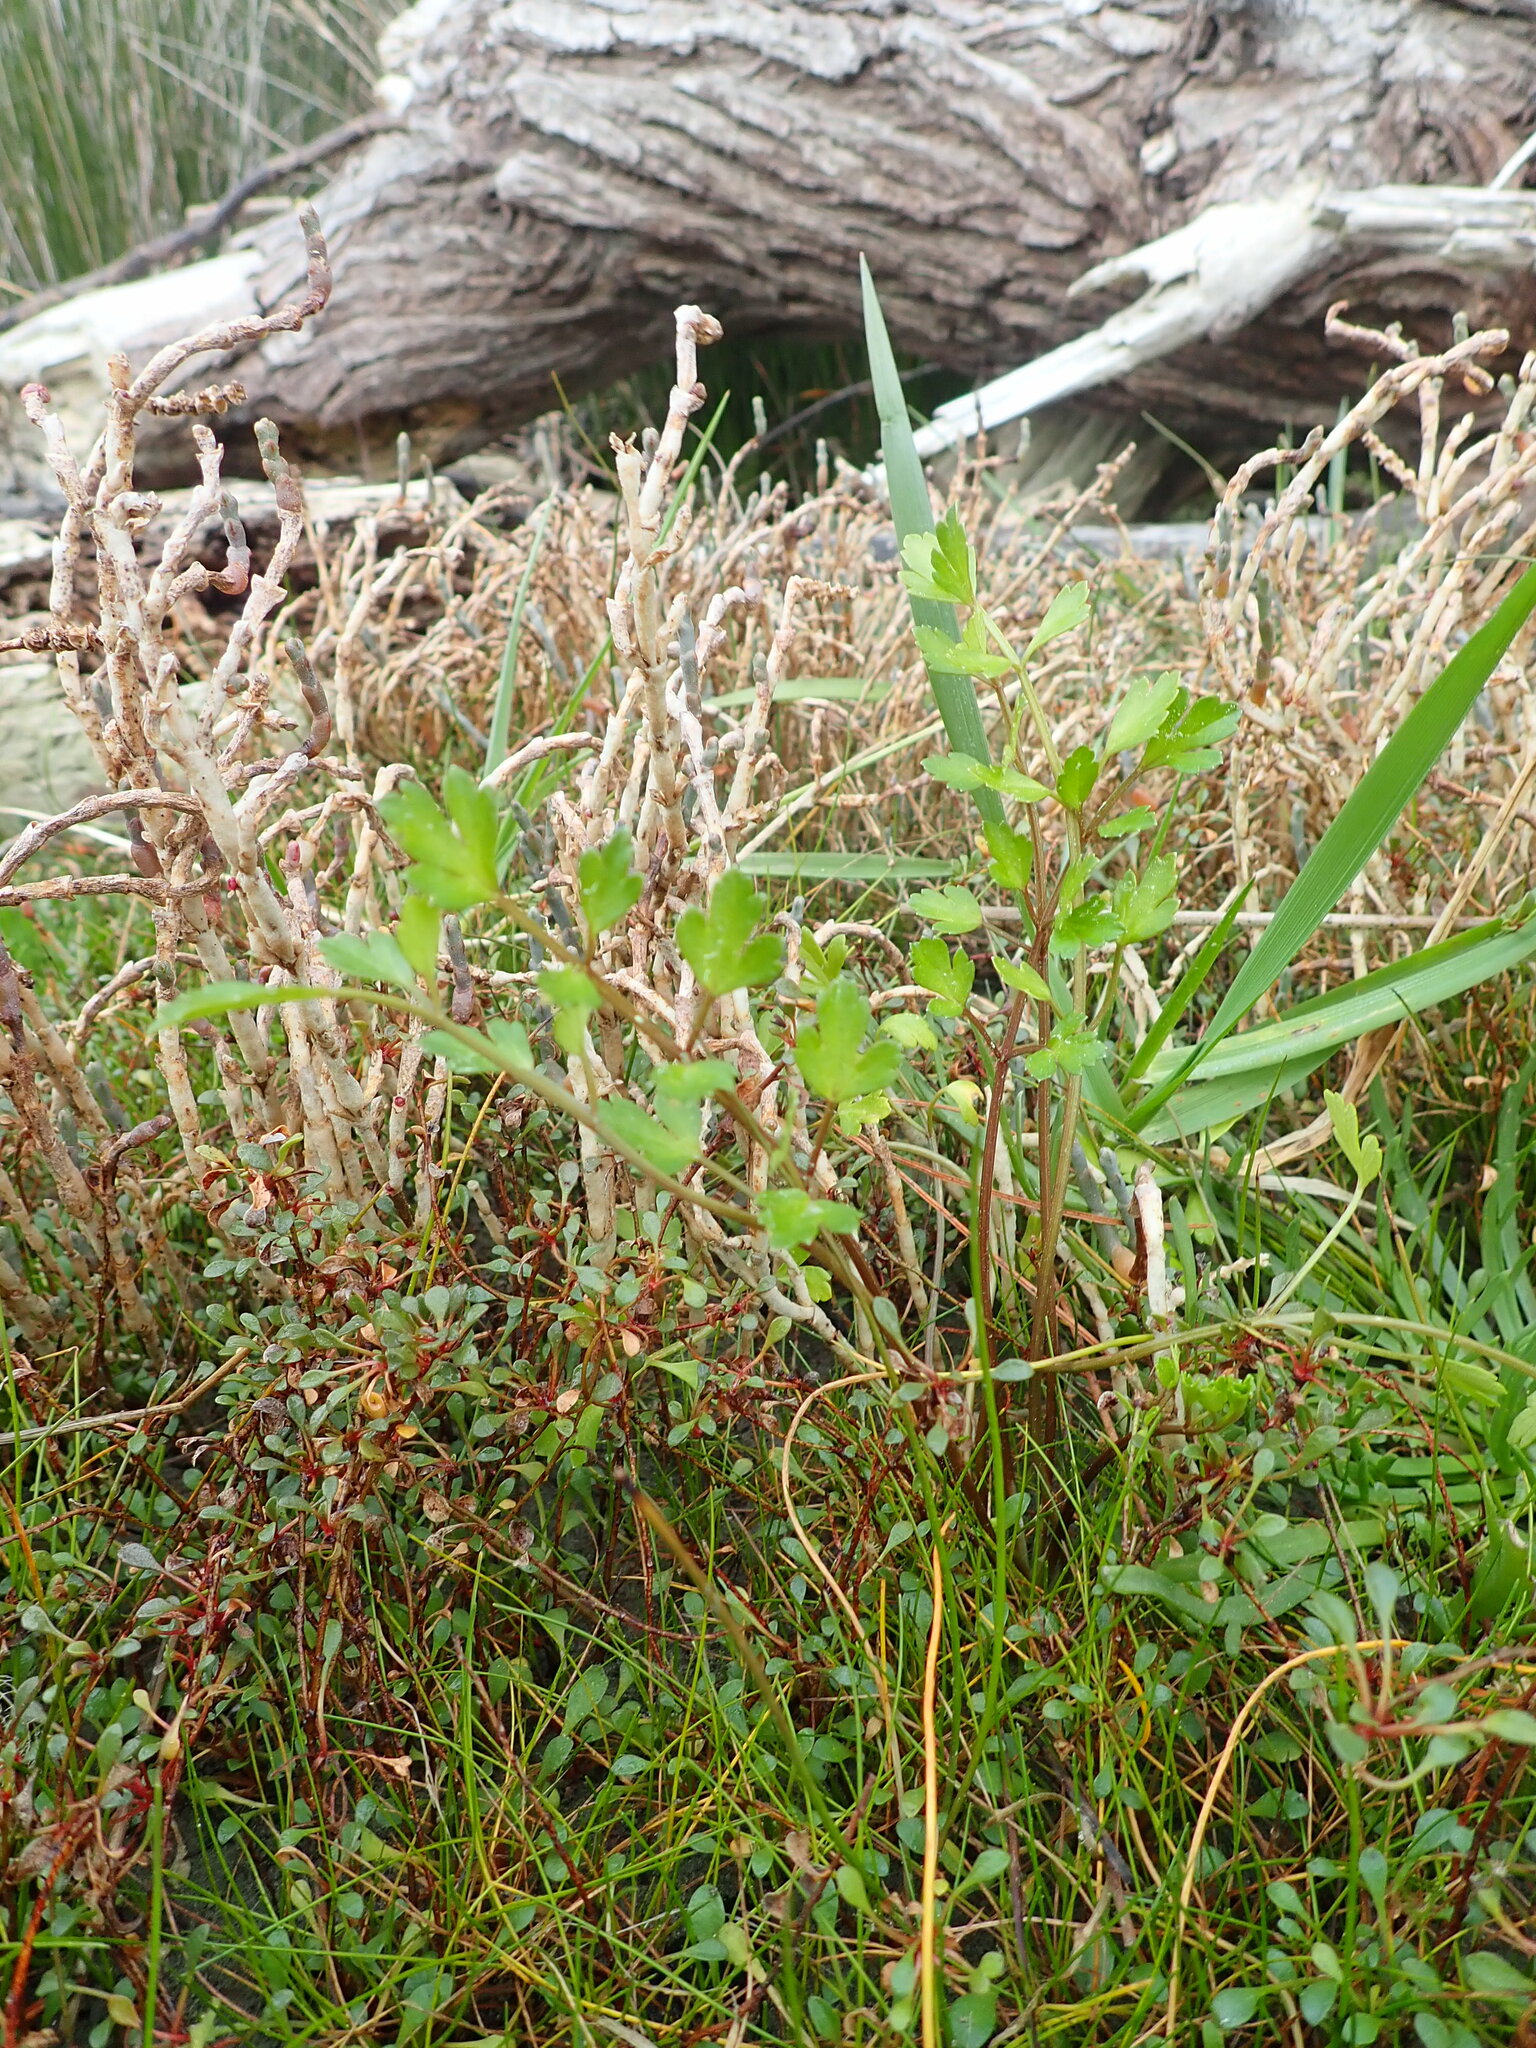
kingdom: Plantae
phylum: Tracheophyta
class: Magnoliopsida
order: Apiales
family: Apiaceae
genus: Apium
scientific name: Apium prostratum
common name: Prostrate marshwort
